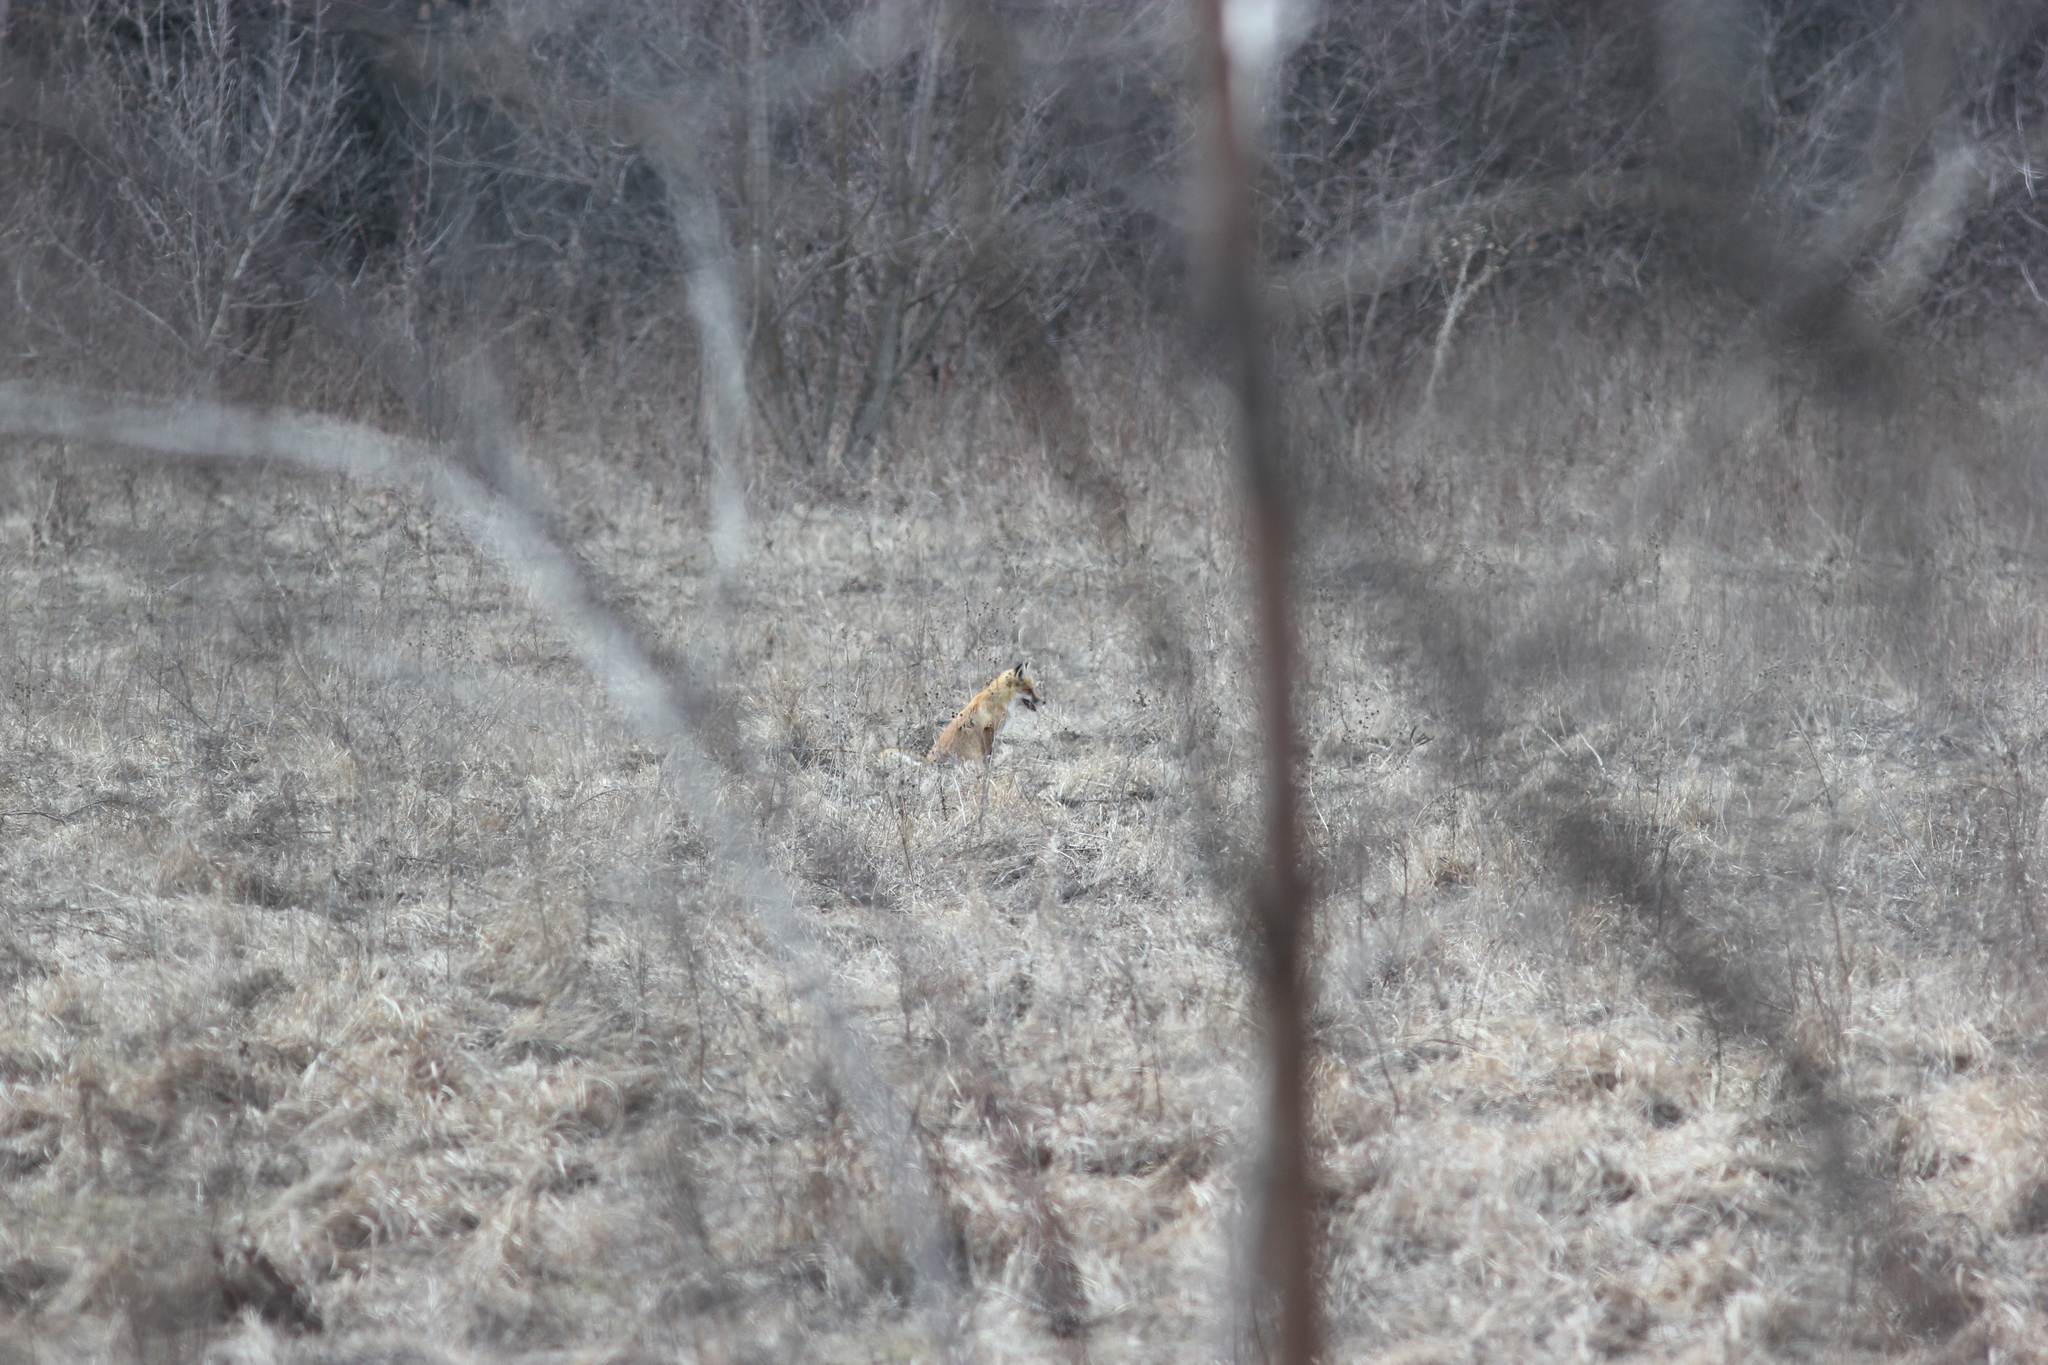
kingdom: Animalia
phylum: Chordata
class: Mammalia
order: Carnivora
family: Canidae
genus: Vulpes
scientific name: Vulpes vulpes
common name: Red fox
